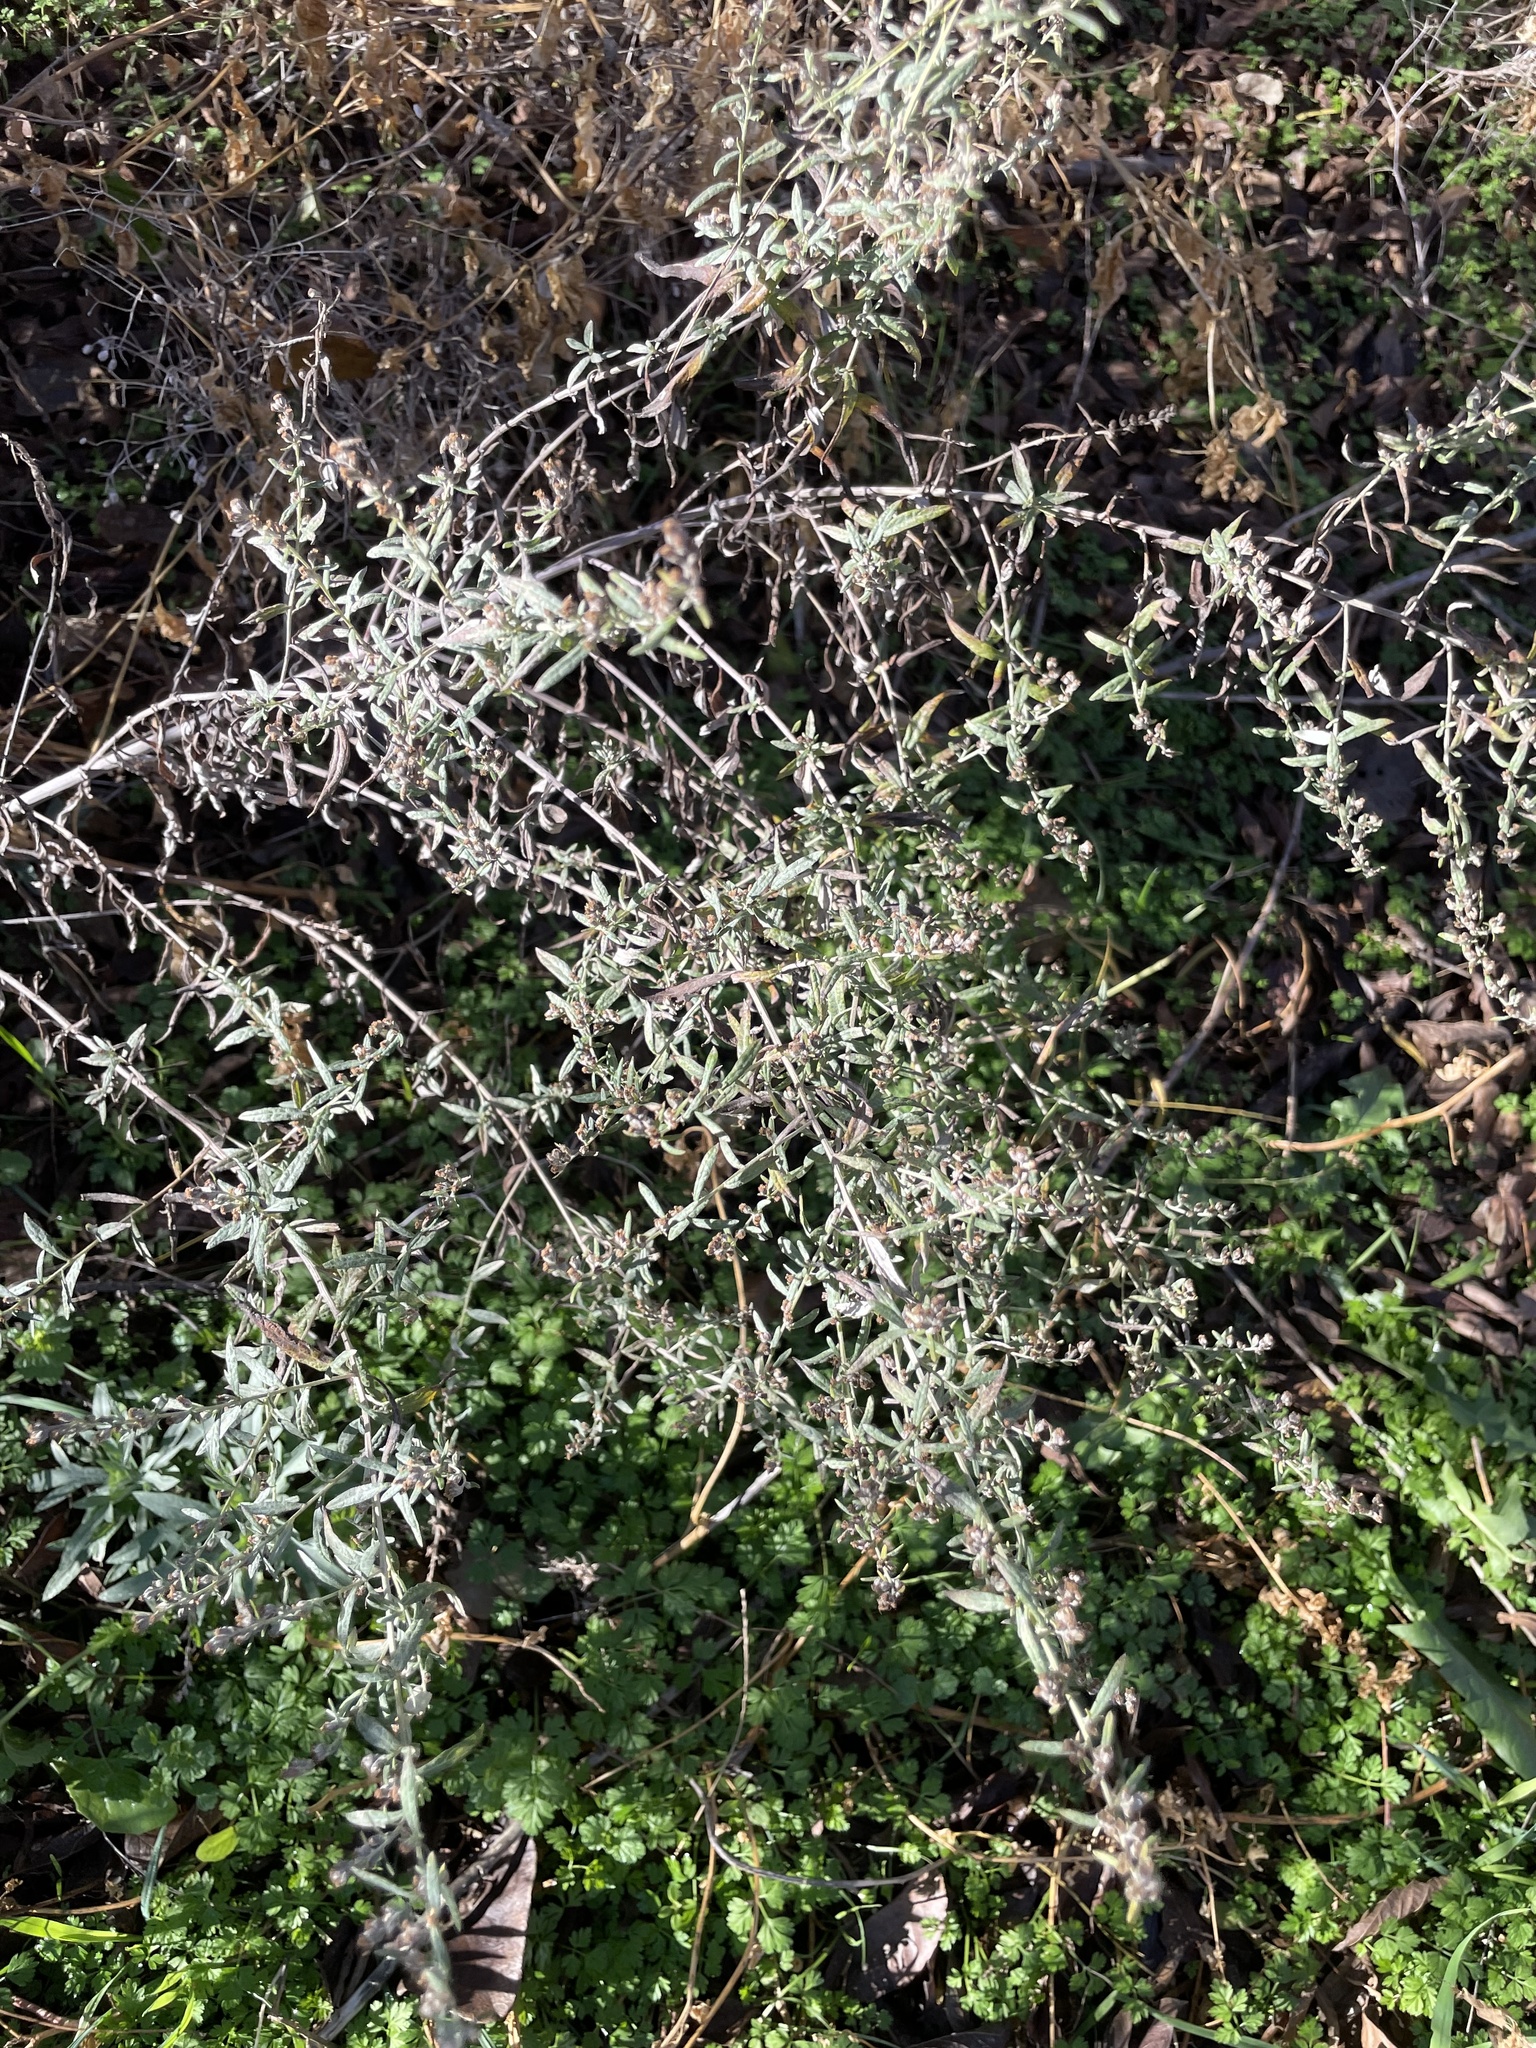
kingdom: Plantae
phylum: Tracheophyta
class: Magnoliopsida
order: Asterales
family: Asteraceae
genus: Artemisia
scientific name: Artemisia ludoviciana
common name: Western mugwort
